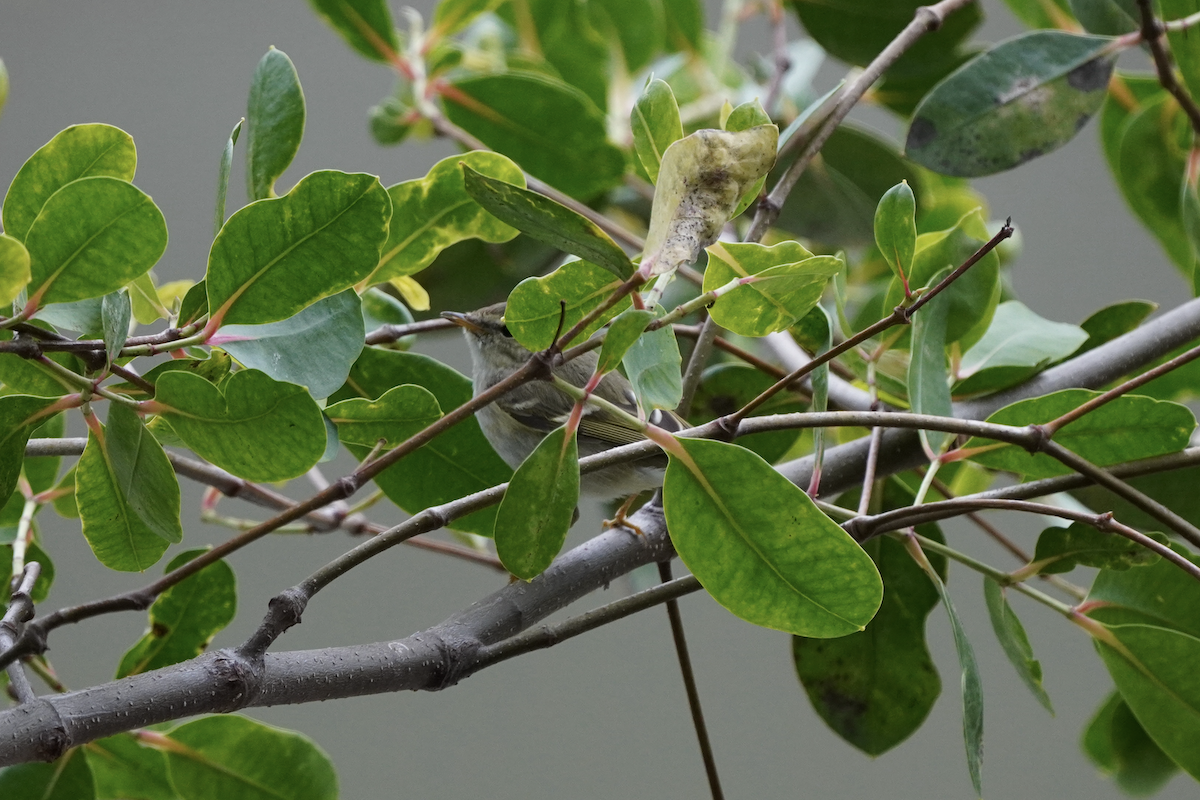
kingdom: Animalia
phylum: Chordata
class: Aves
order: Passeriformes
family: Phylloscopidae
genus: Phylloscopus
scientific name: Phylloscopus inornatus
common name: Yellow-browed warbler
